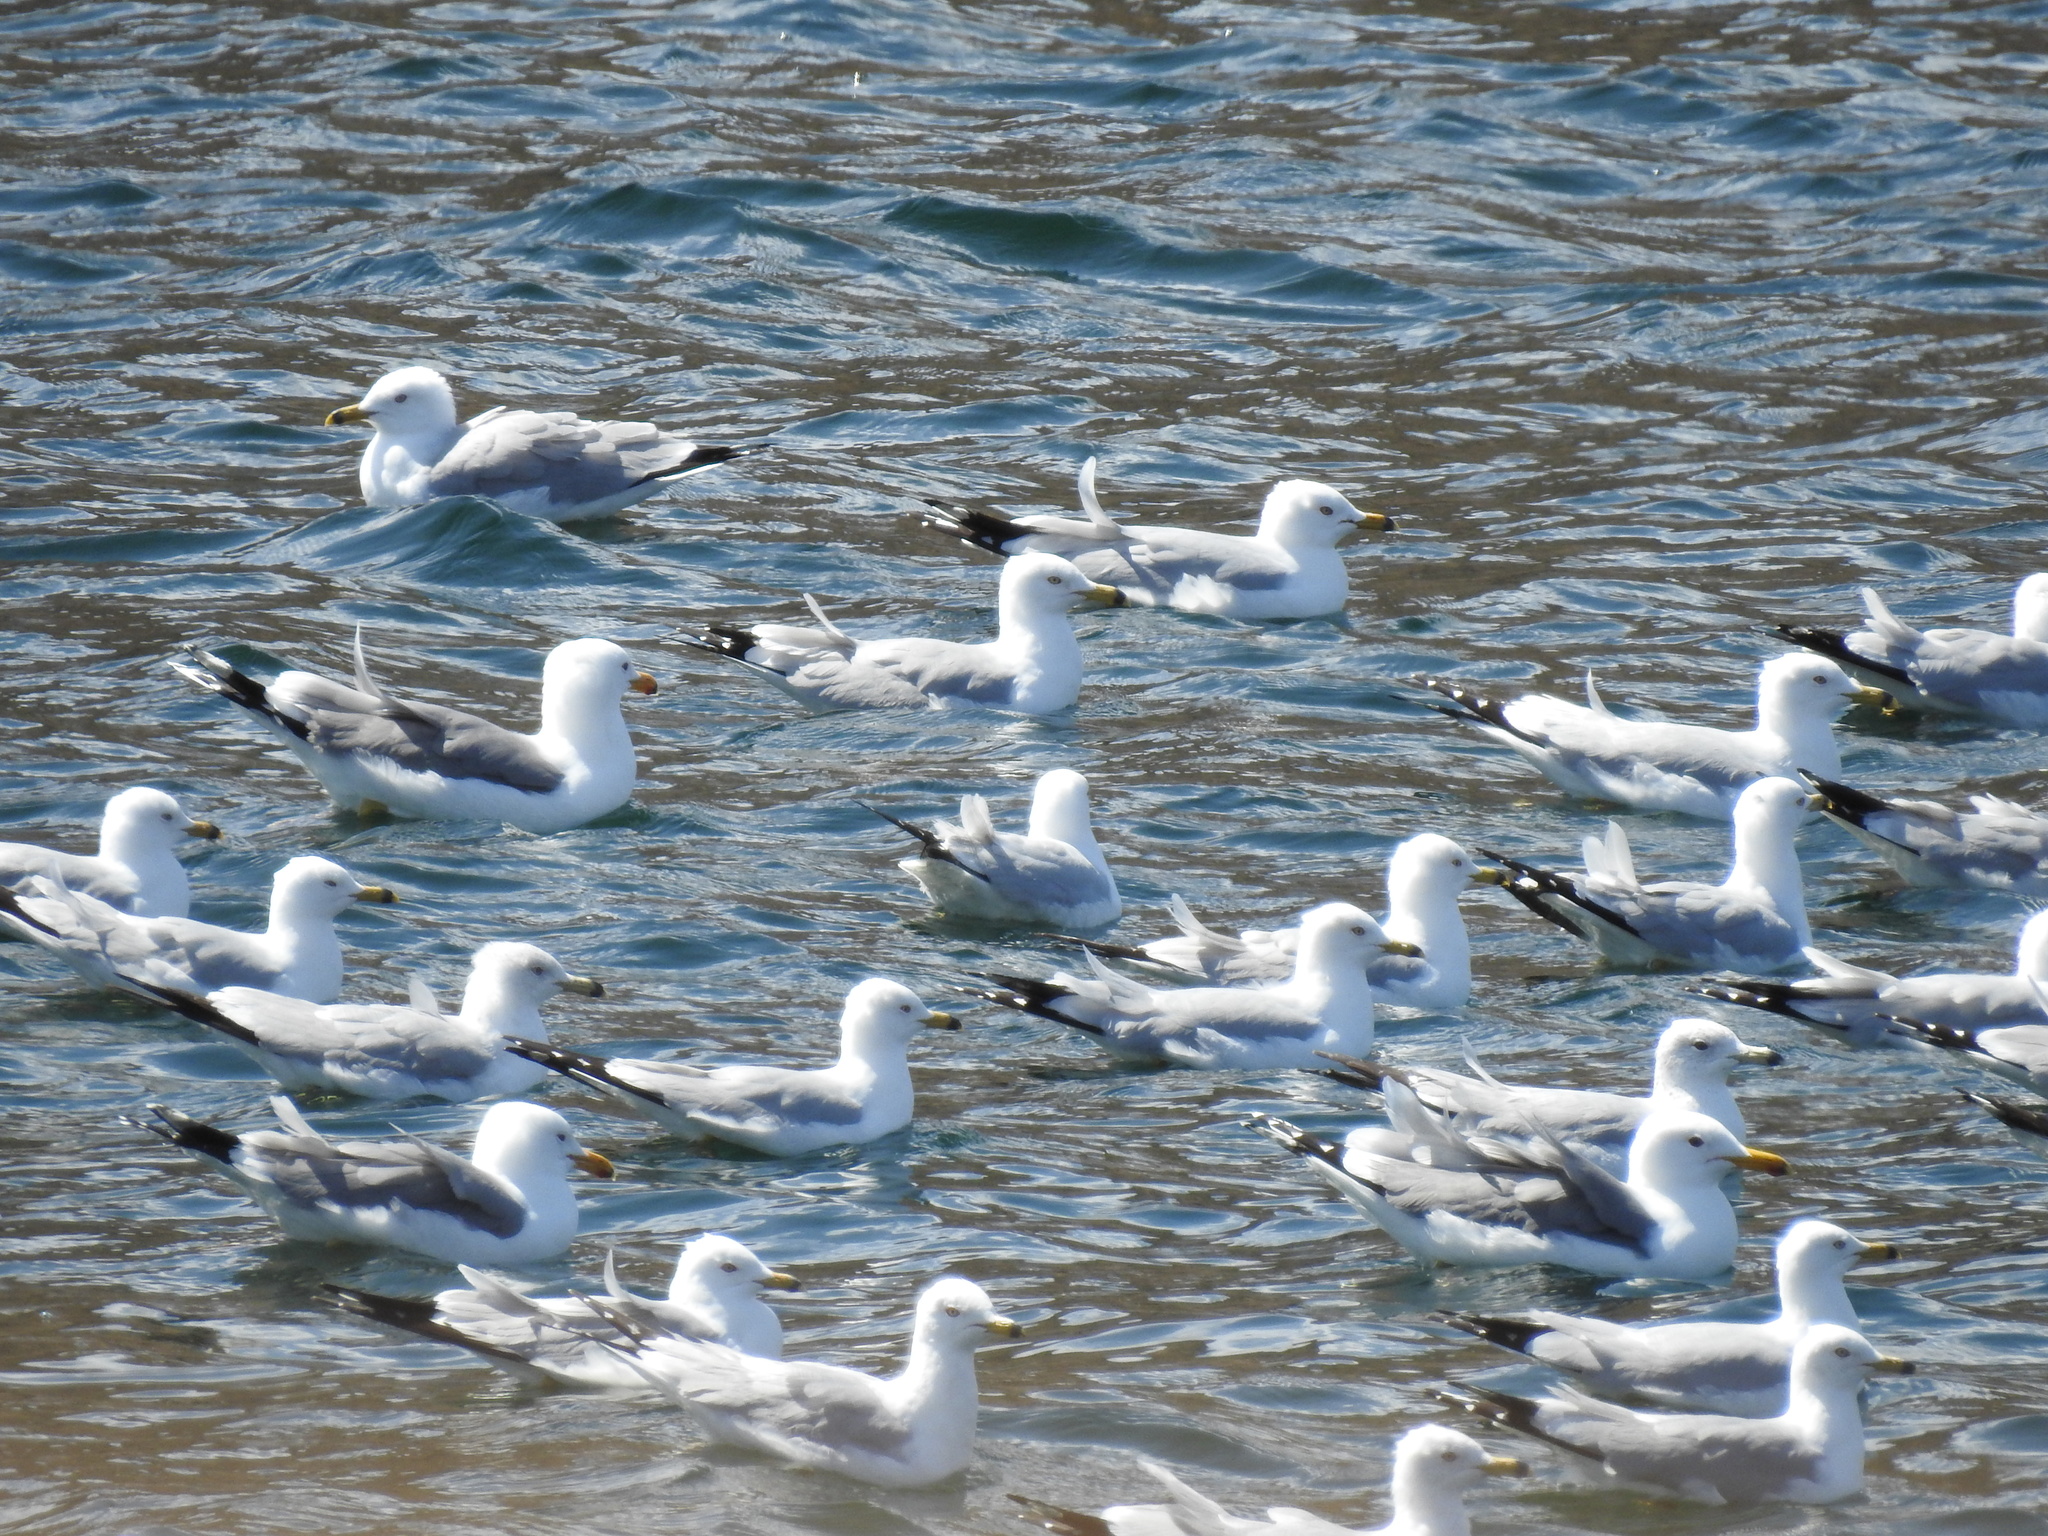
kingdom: Animalia
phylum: Chordata
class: Aves
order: Charadriiformes
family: Laridae
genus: Larus
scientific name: Larus delawarensis
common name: Ring-billed gull
